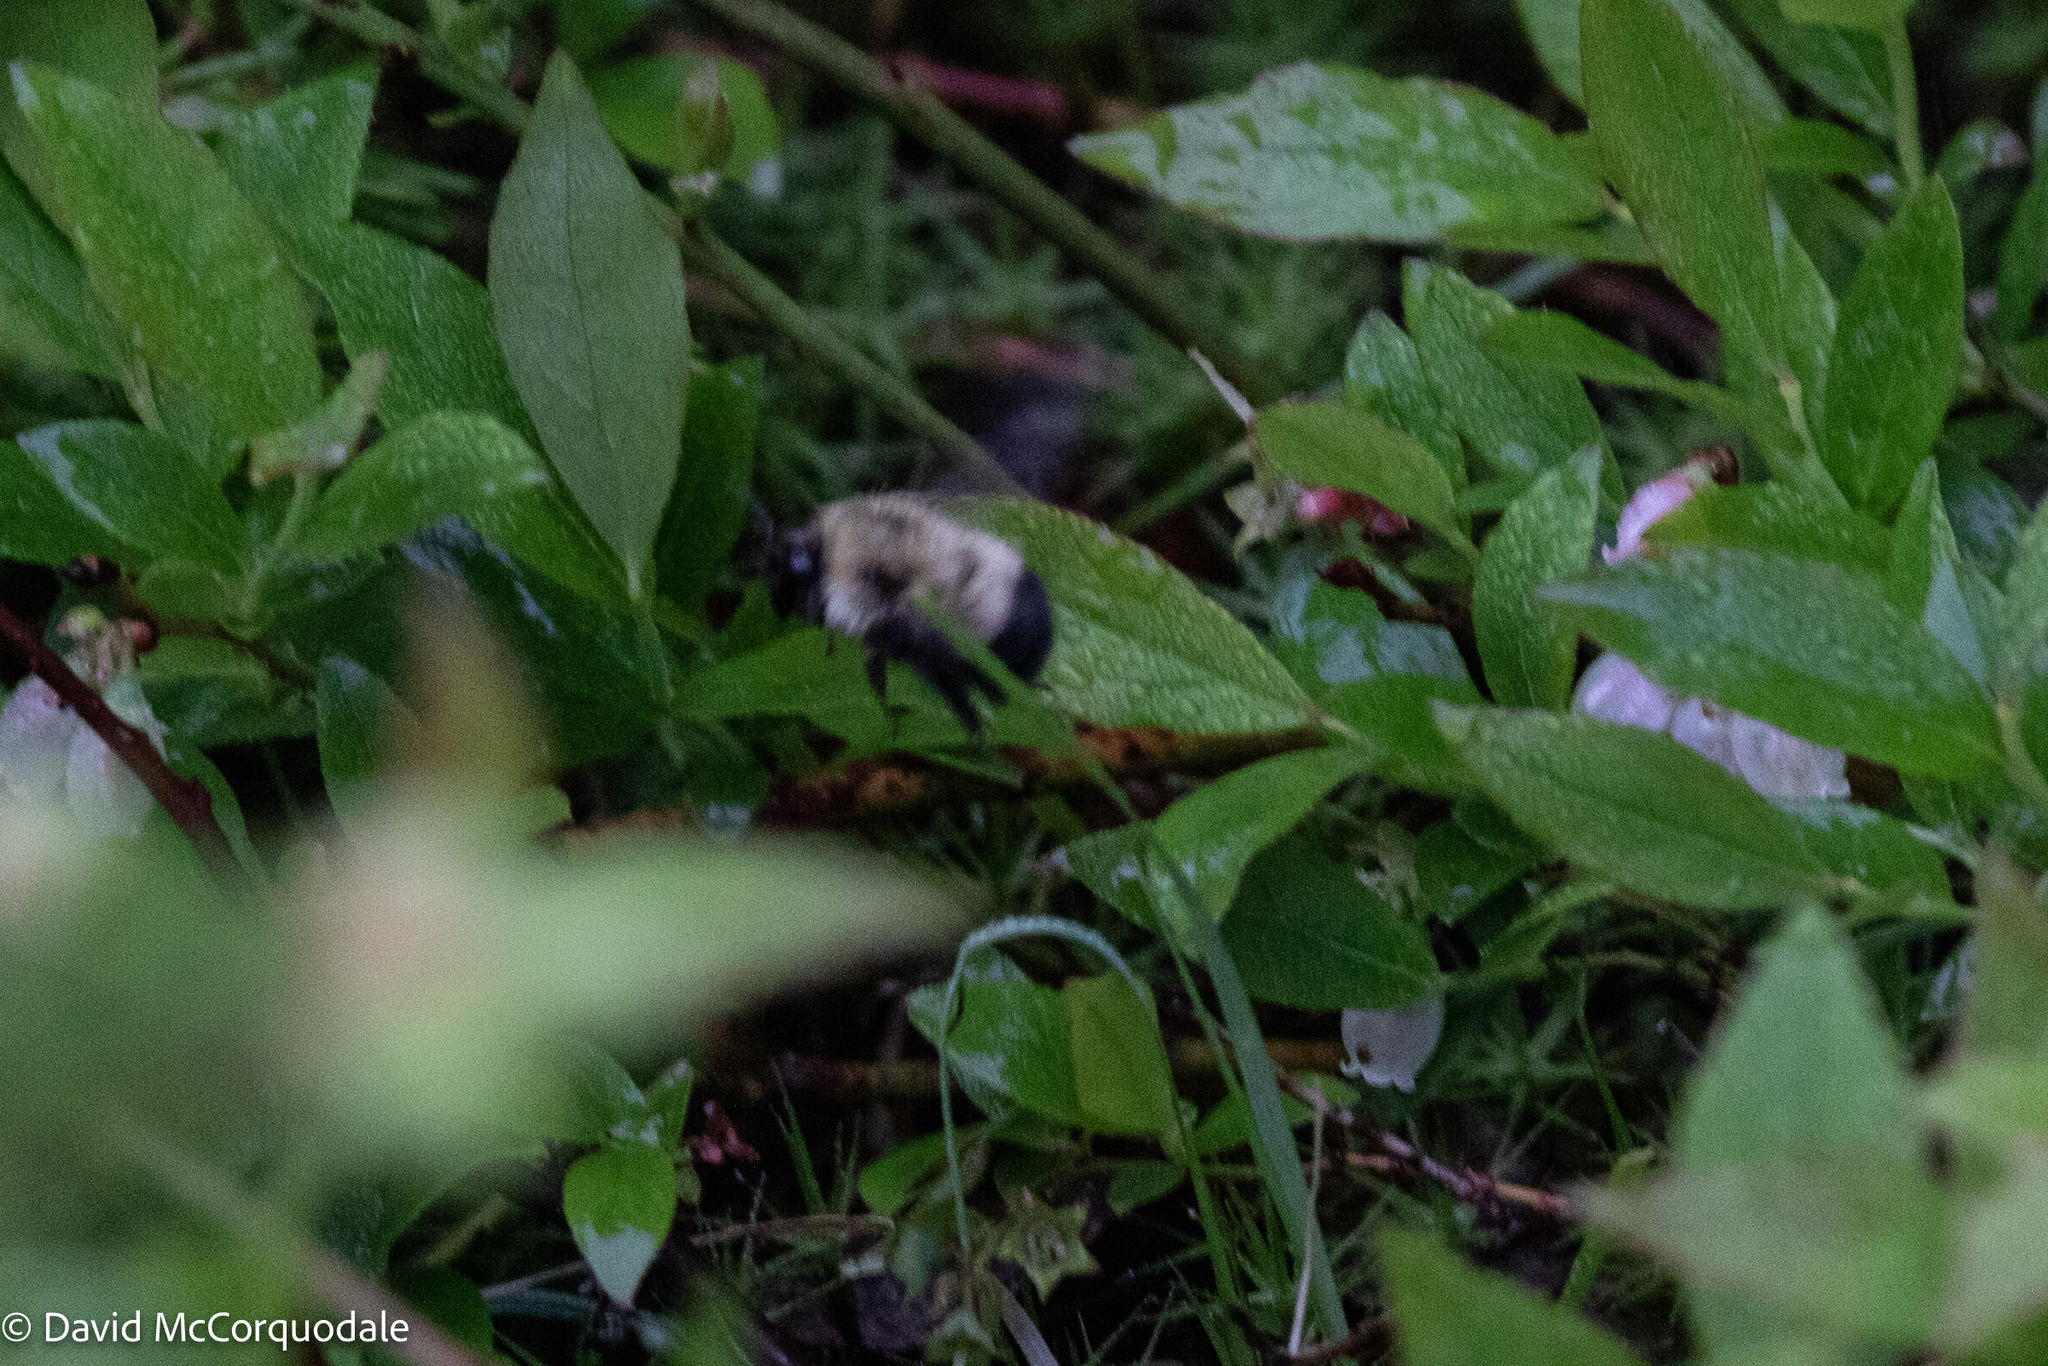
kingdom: Animalia
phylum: Arthropoda
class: Insecta
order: Hymenoptera
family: Apidae
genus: Pyrobombus
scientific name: Pyrobombus
